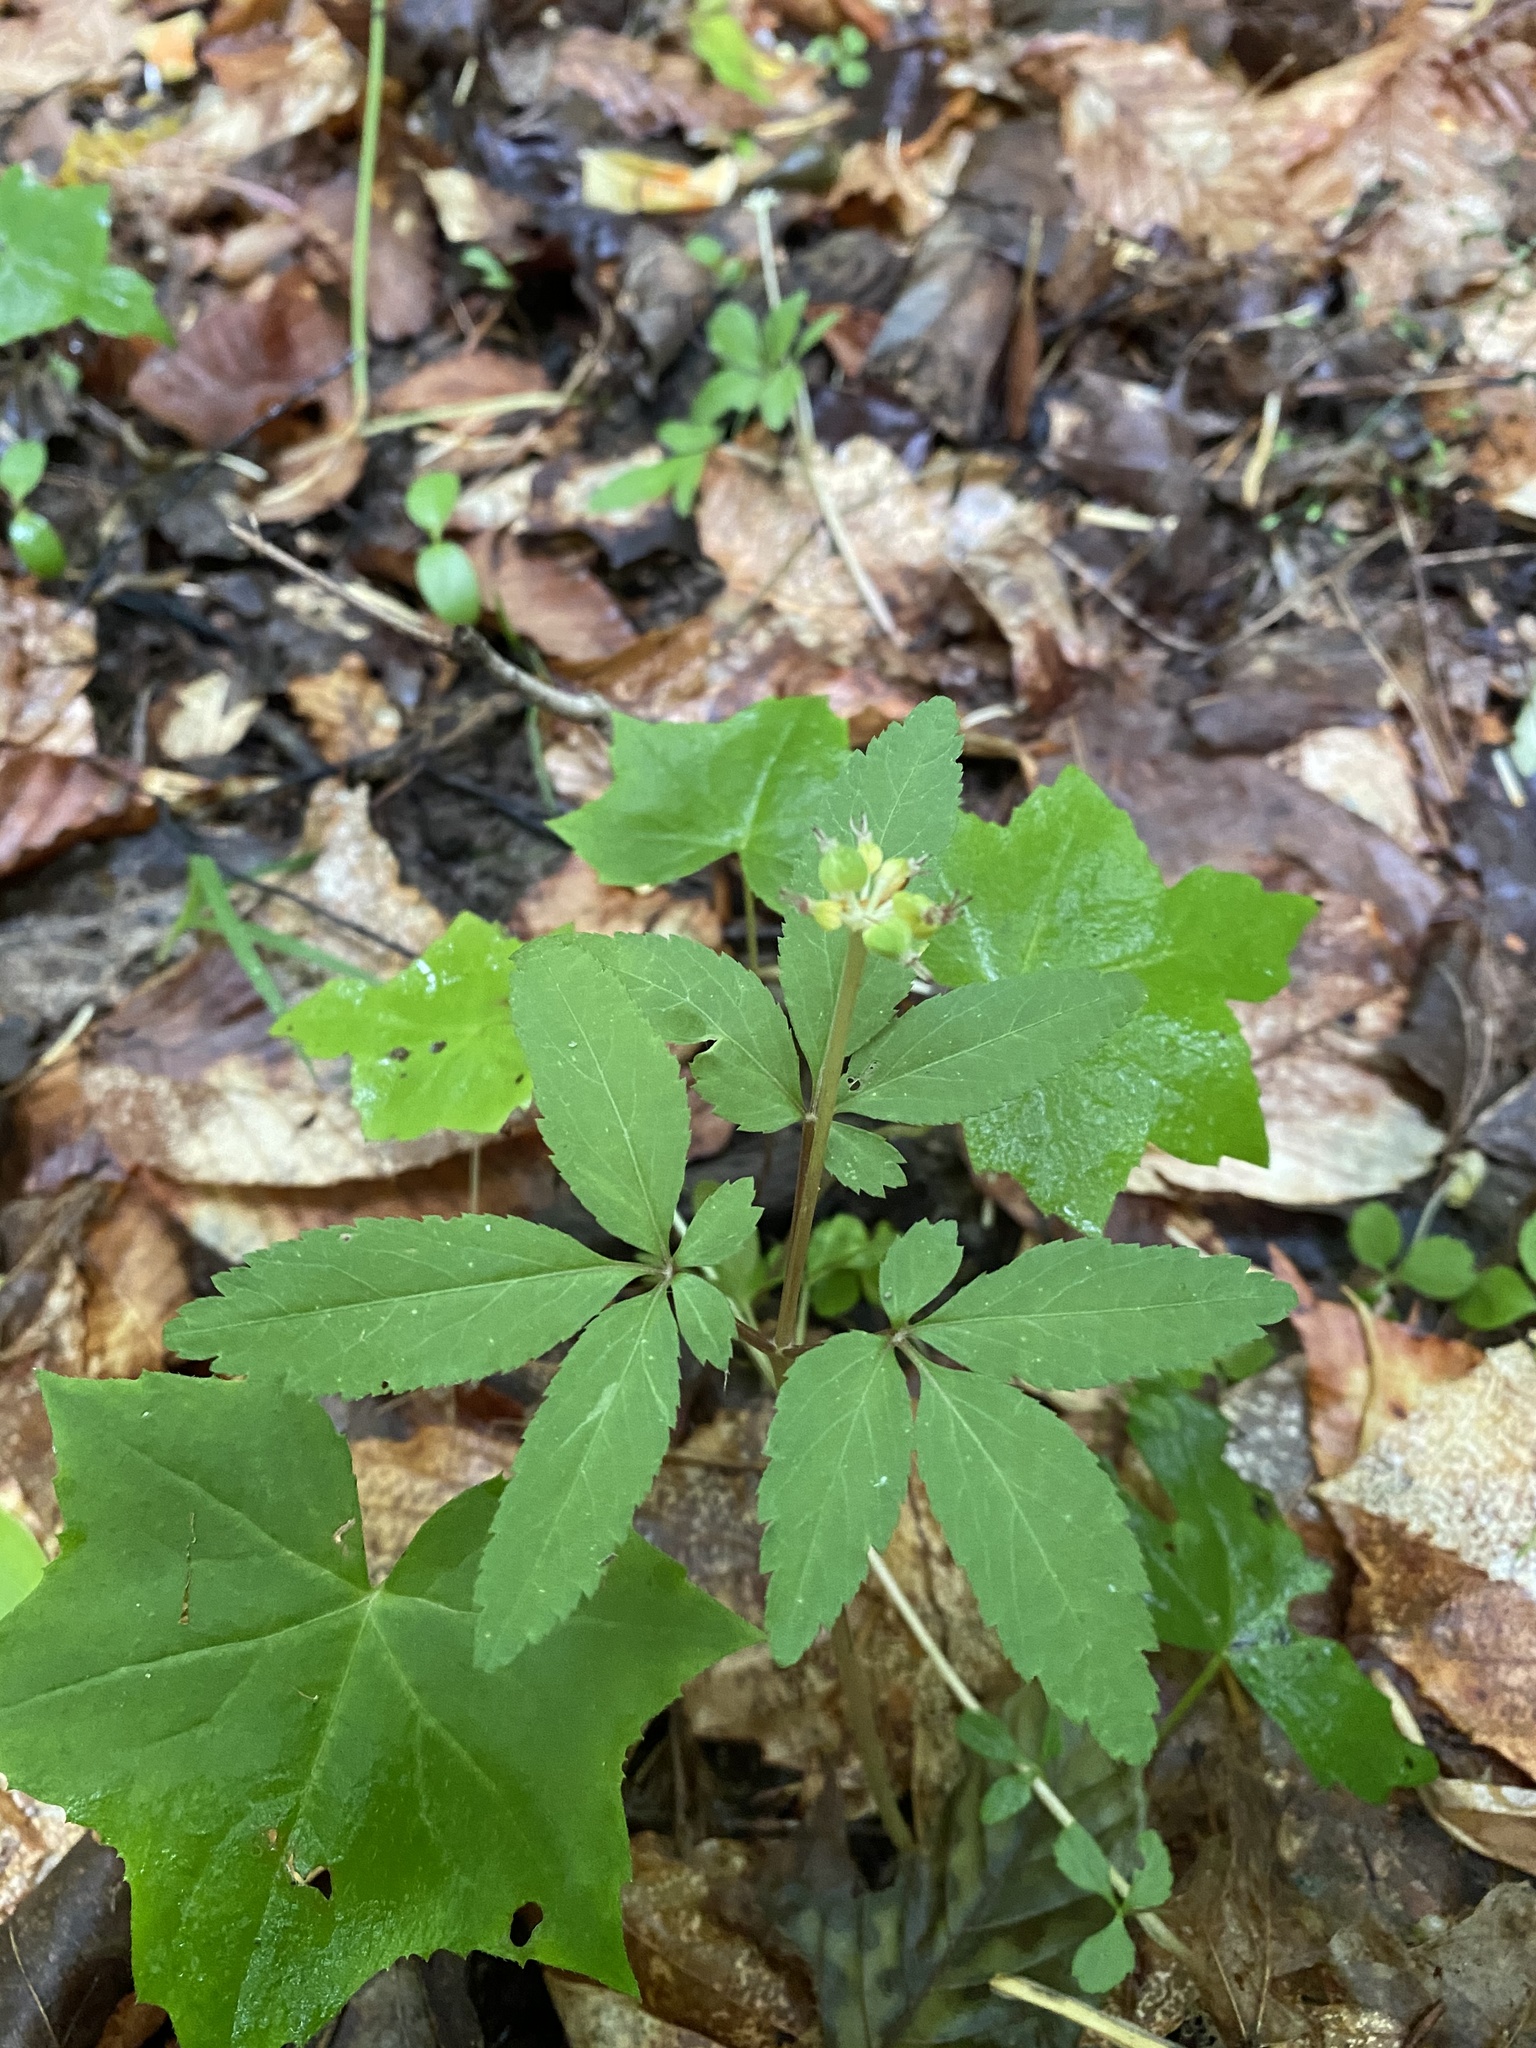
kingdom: Plantae
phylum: Tracheophyta
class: Magnoliopsida
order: Apiales
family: Araliaceae
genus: Panax
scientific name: Panax trifolius
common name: Dwarf ginseng
